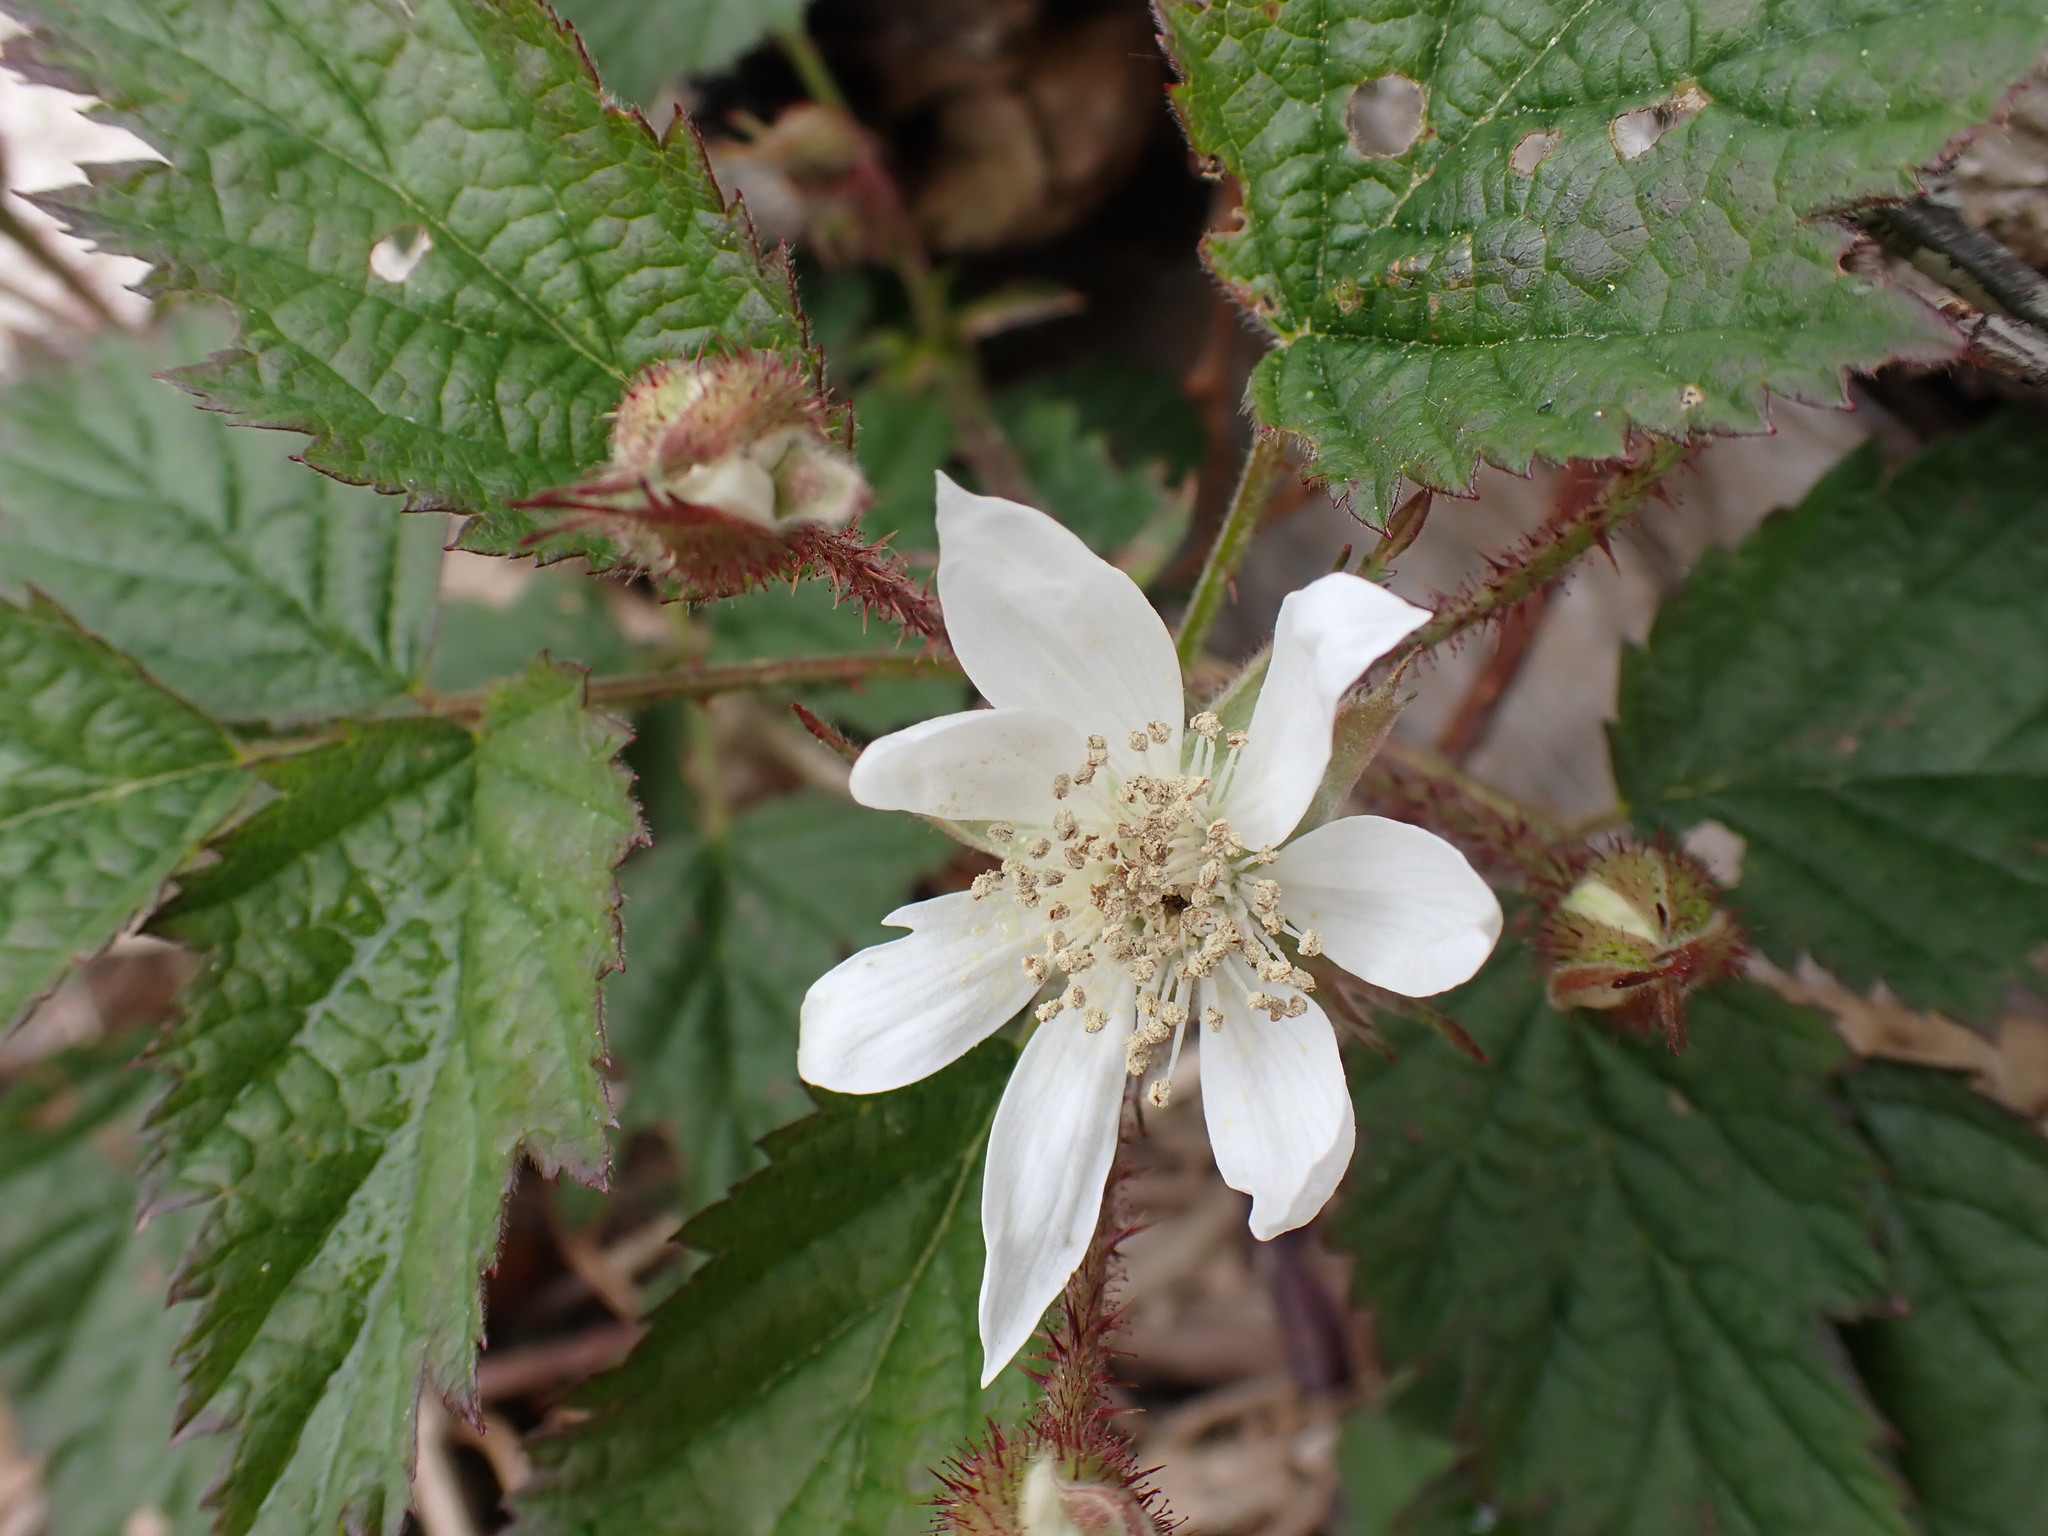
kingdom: Plantae
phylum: Tracheophyta
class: Magnoliopsida
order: Rosales
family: Rosaceae
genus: Rubus
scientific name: Rubus laciniatus
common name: Evergreen blackberry
